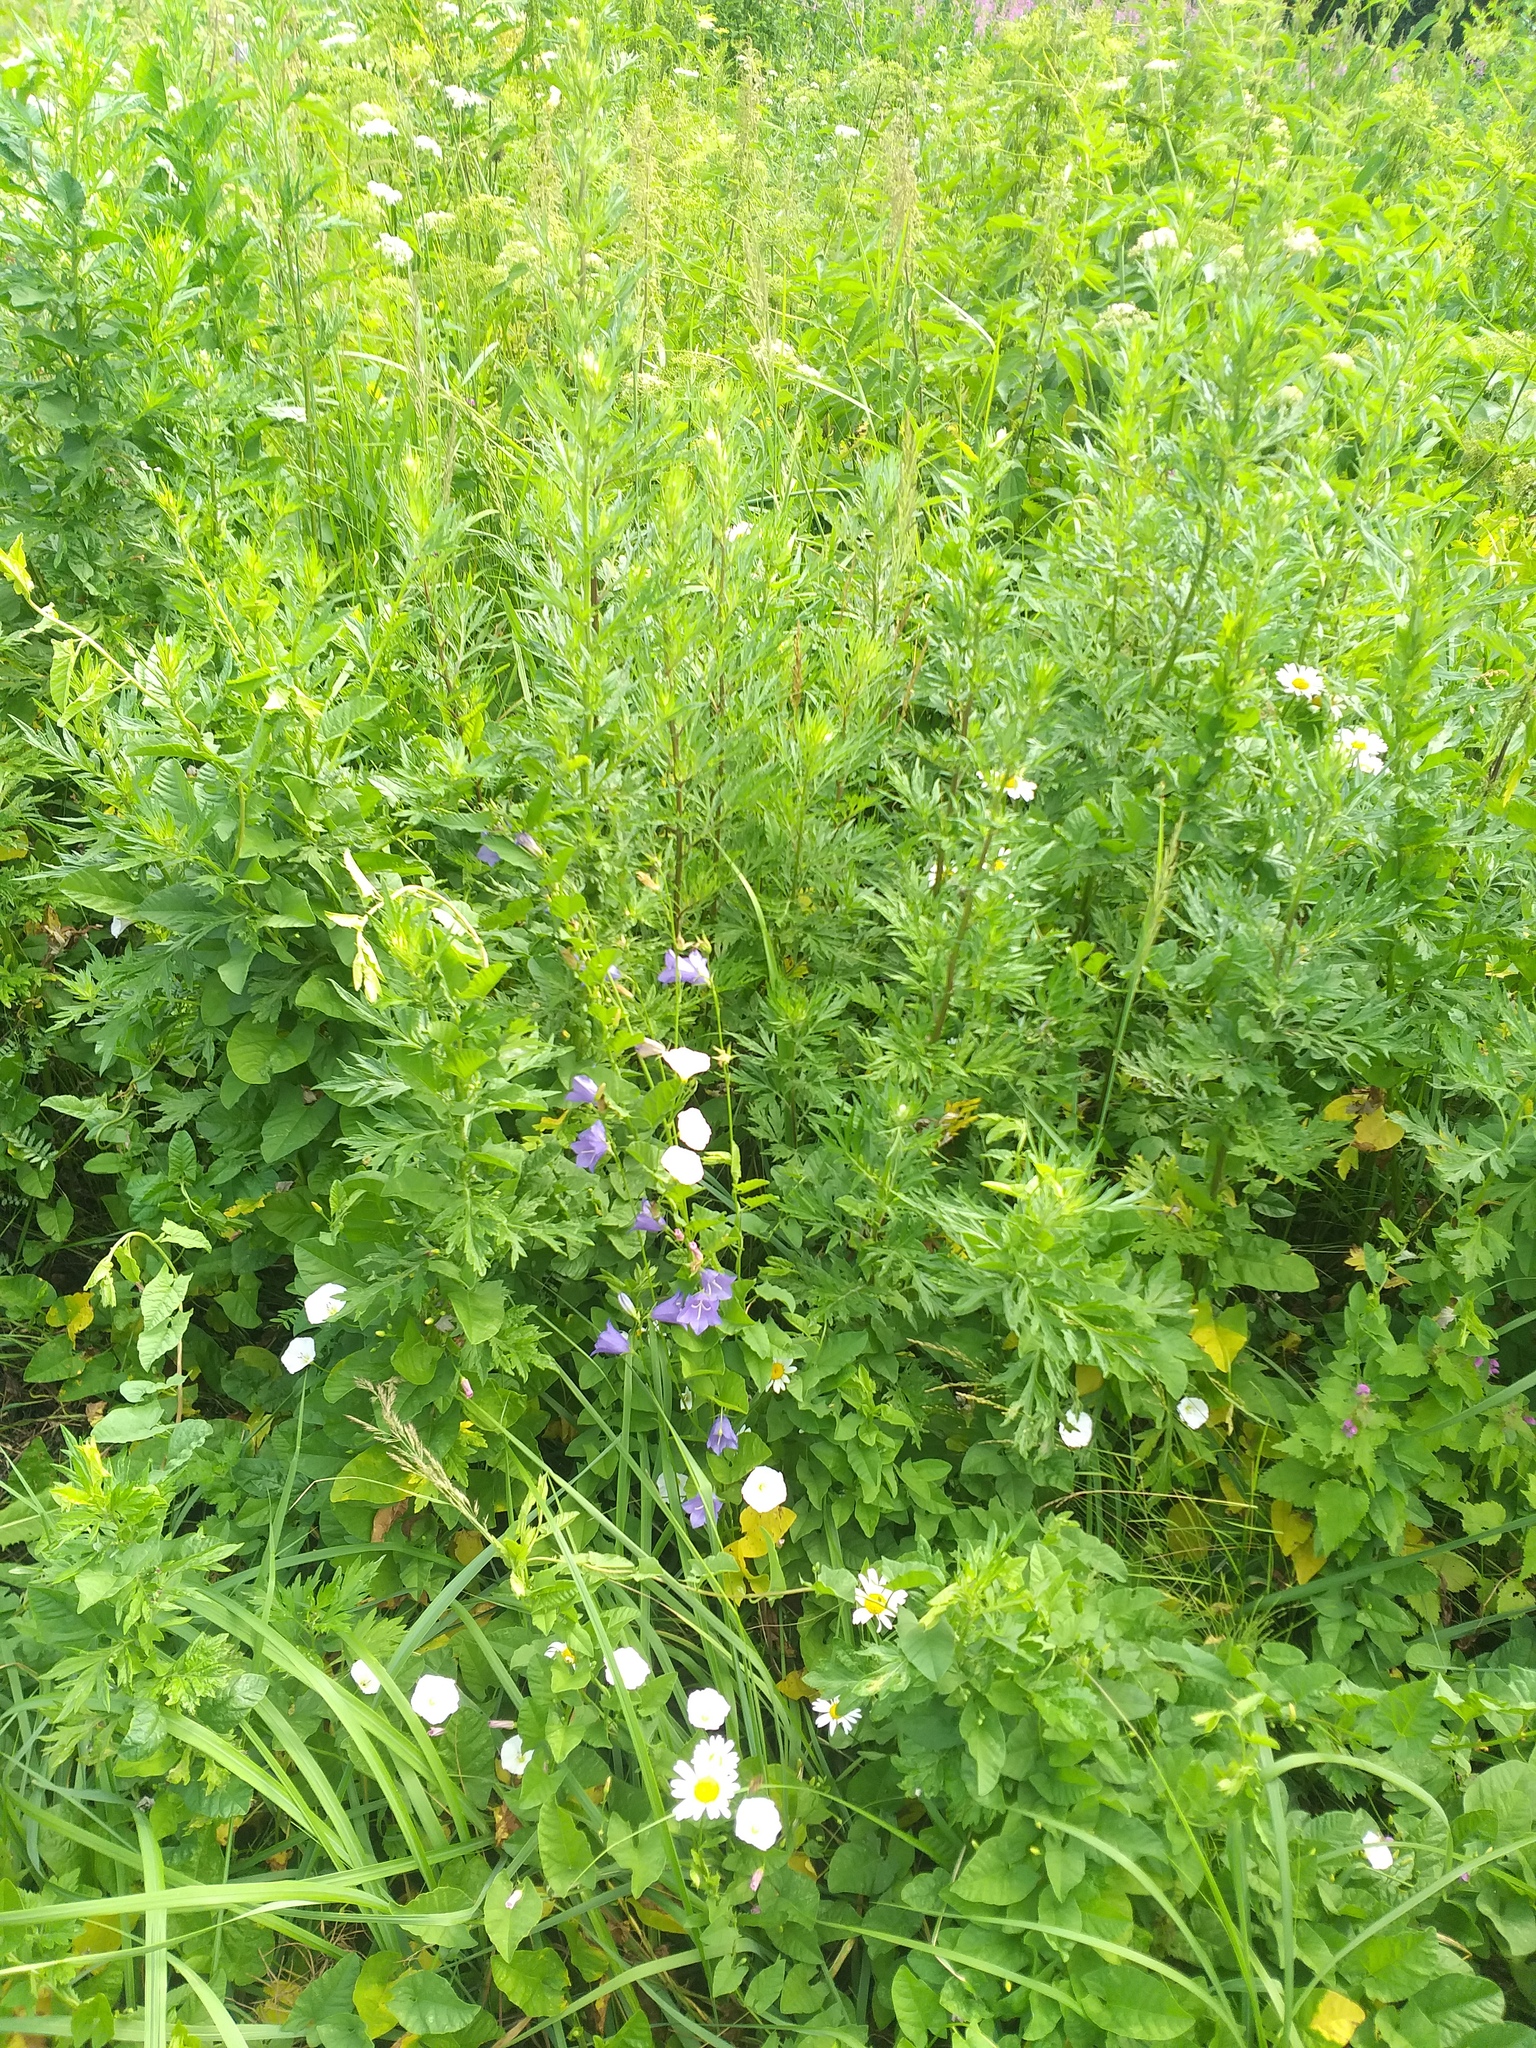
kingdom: Plantae
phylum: Tracheophyta
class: Magnoliopsida
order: Asterales
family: Campanulaceae
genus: Campanula
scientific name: Campanula persicifolia
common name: Peach-leaved bellflower
